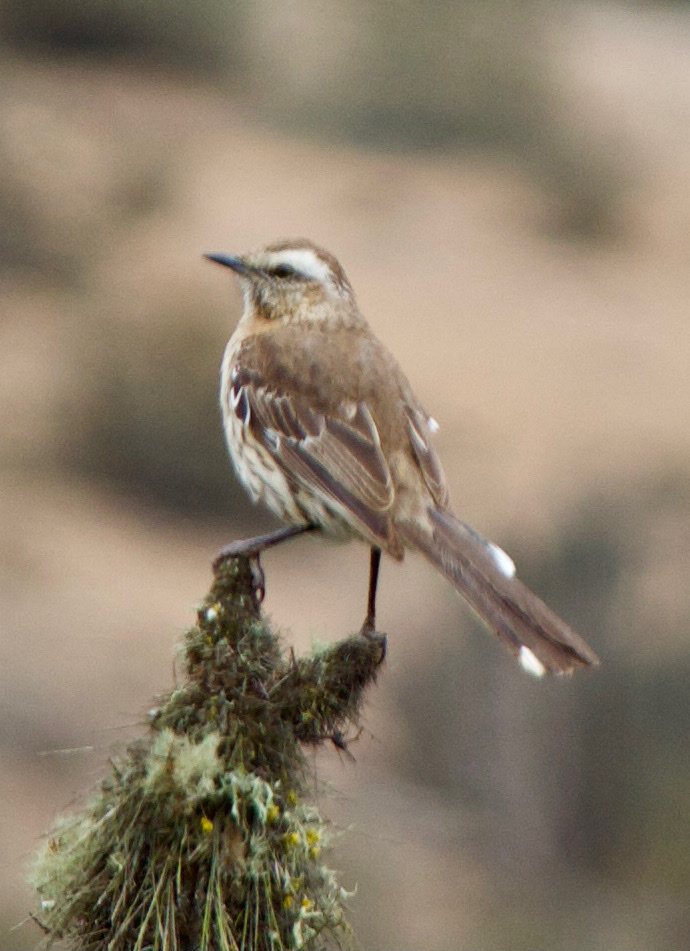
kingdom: Animalia
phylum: Chordata
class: Aves
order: Passeriformes
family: Mimidae
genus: Mimus
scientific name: Mimus thenca
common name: Chilean mockingbird
